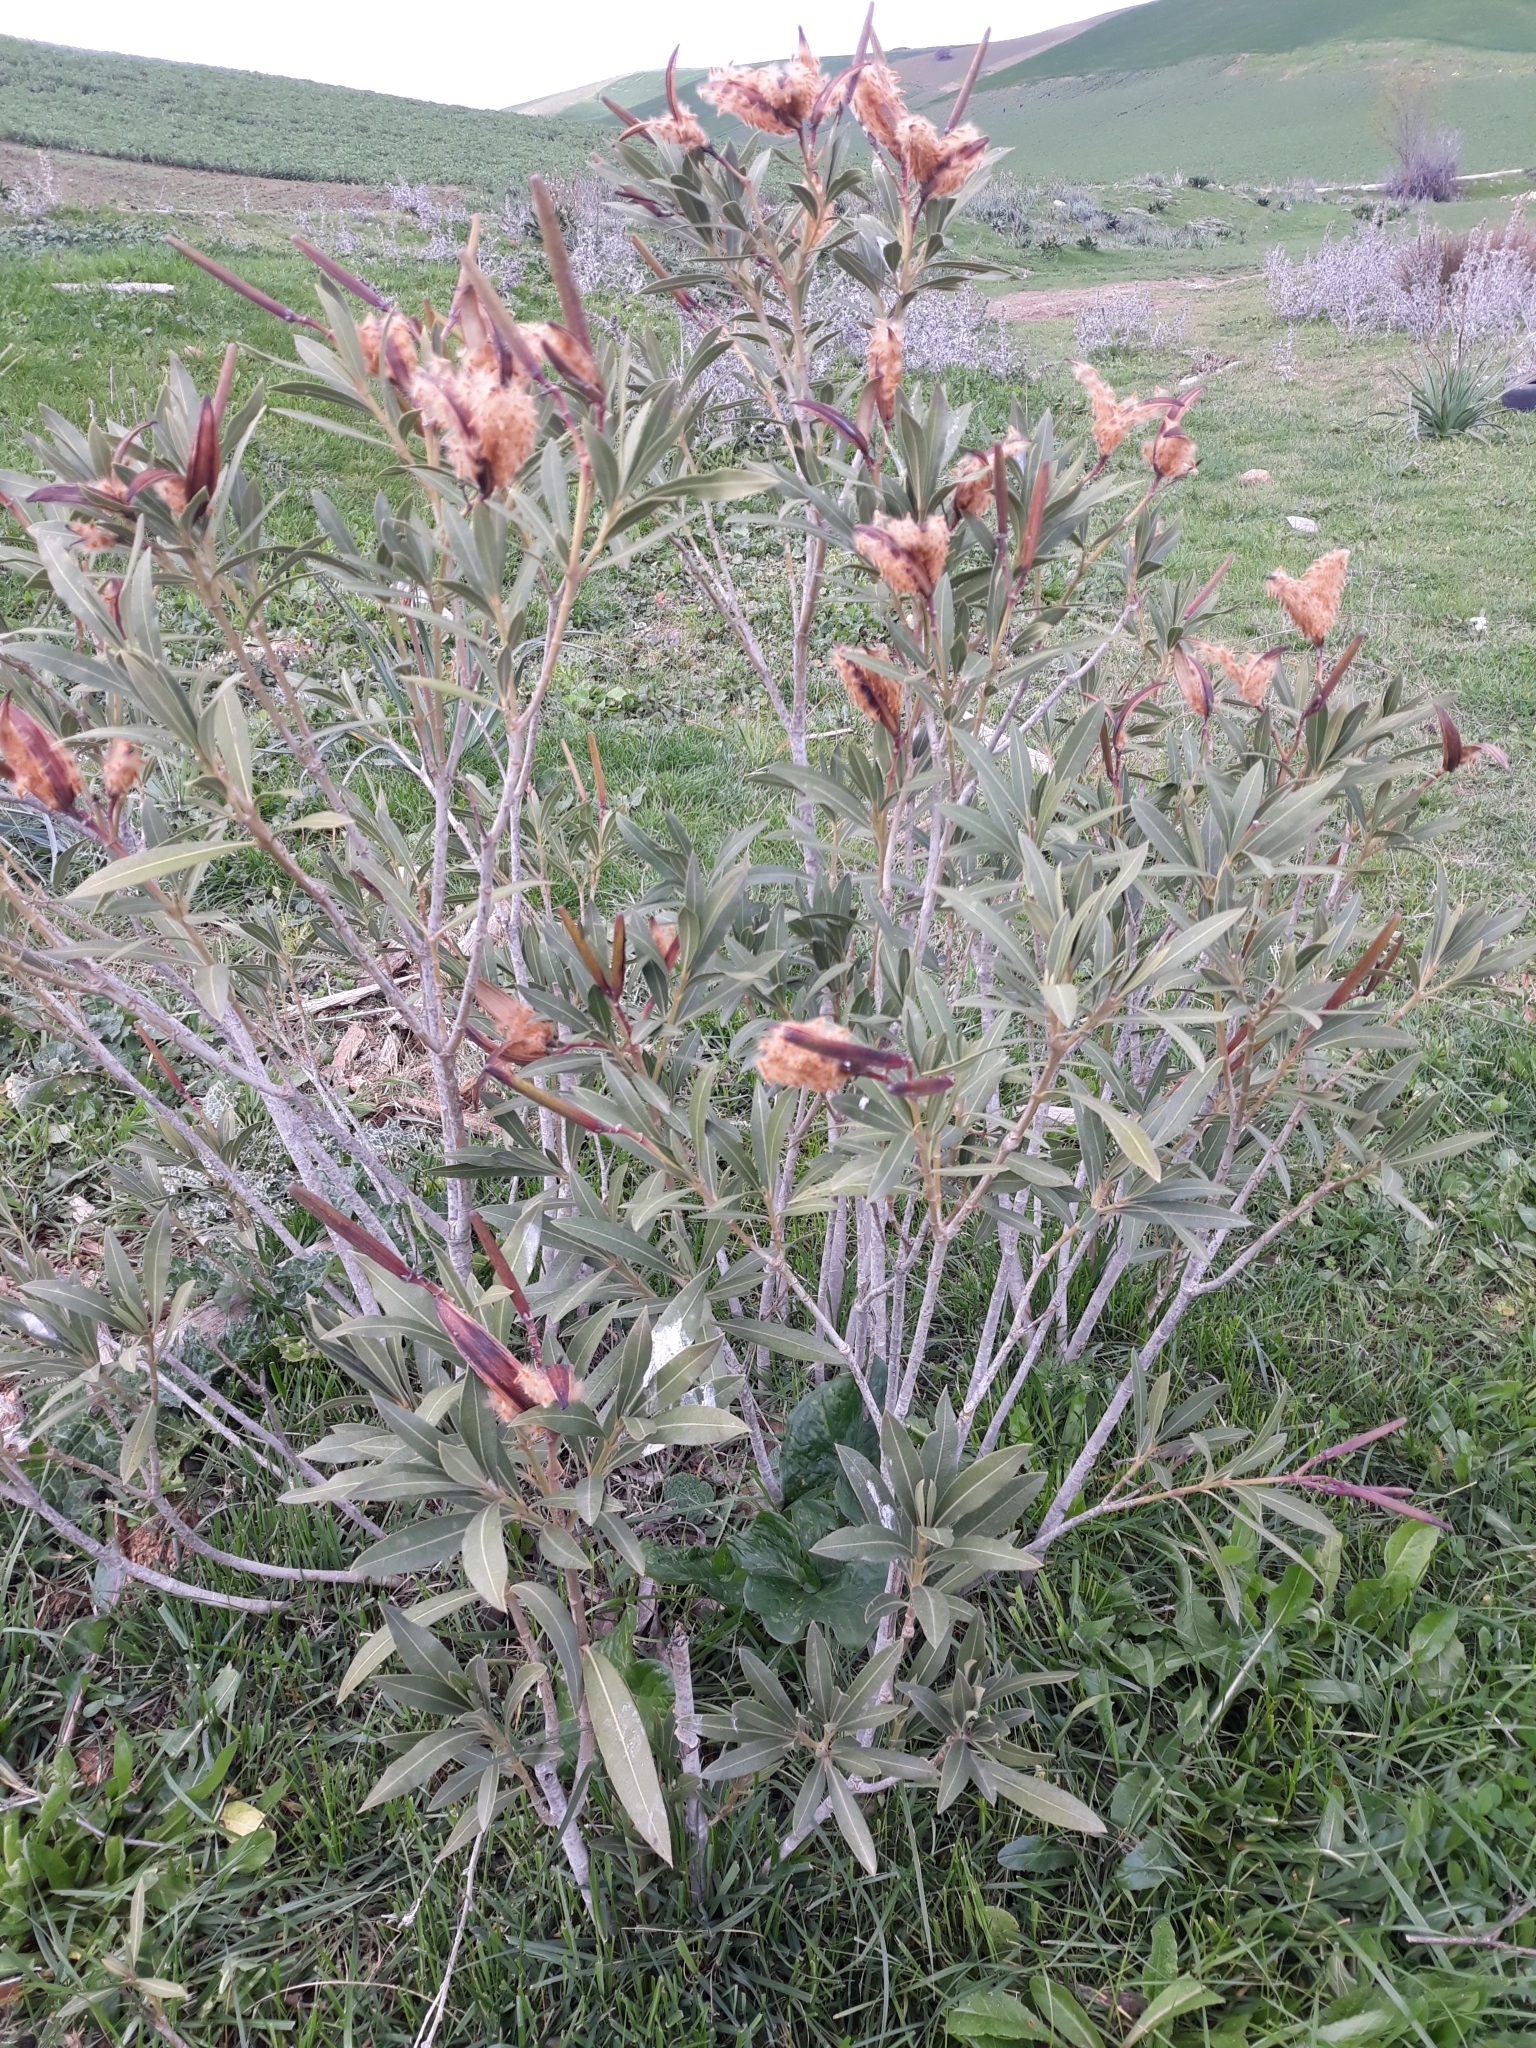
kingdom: Plantae
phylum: Tracheophyta
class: Magnoliopsida
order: Gentianales
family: Apocynaceae
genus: Nerium
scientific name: Nerium oleander
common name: Oleander
